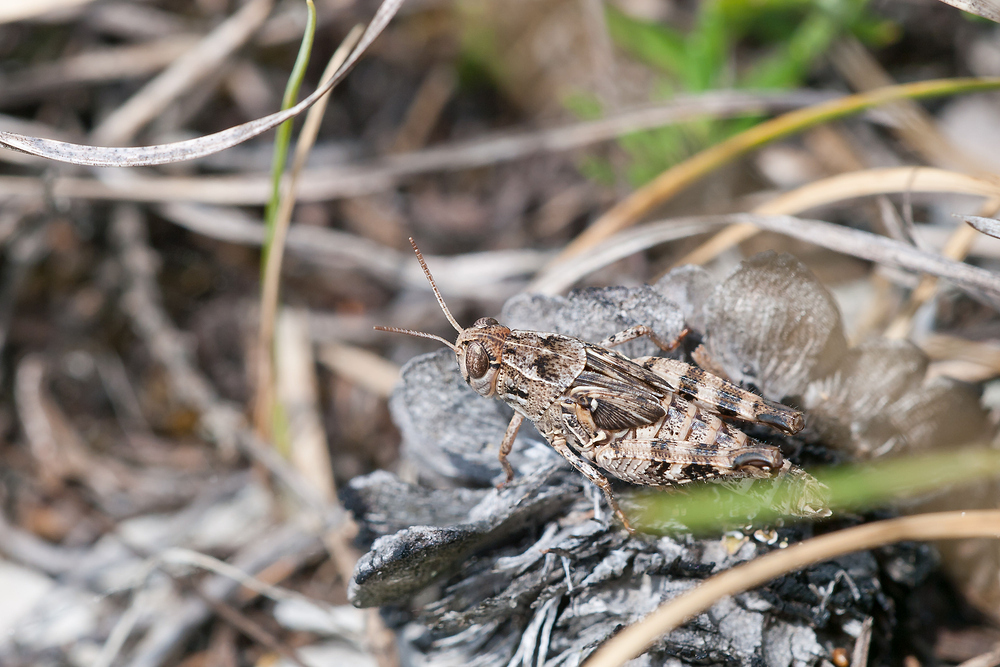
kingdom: Animalia
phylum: Arthropoda
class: Insecta
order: Orthoptera
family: Acrididae
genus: Calliptamus
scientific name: Calliptamus italicus
